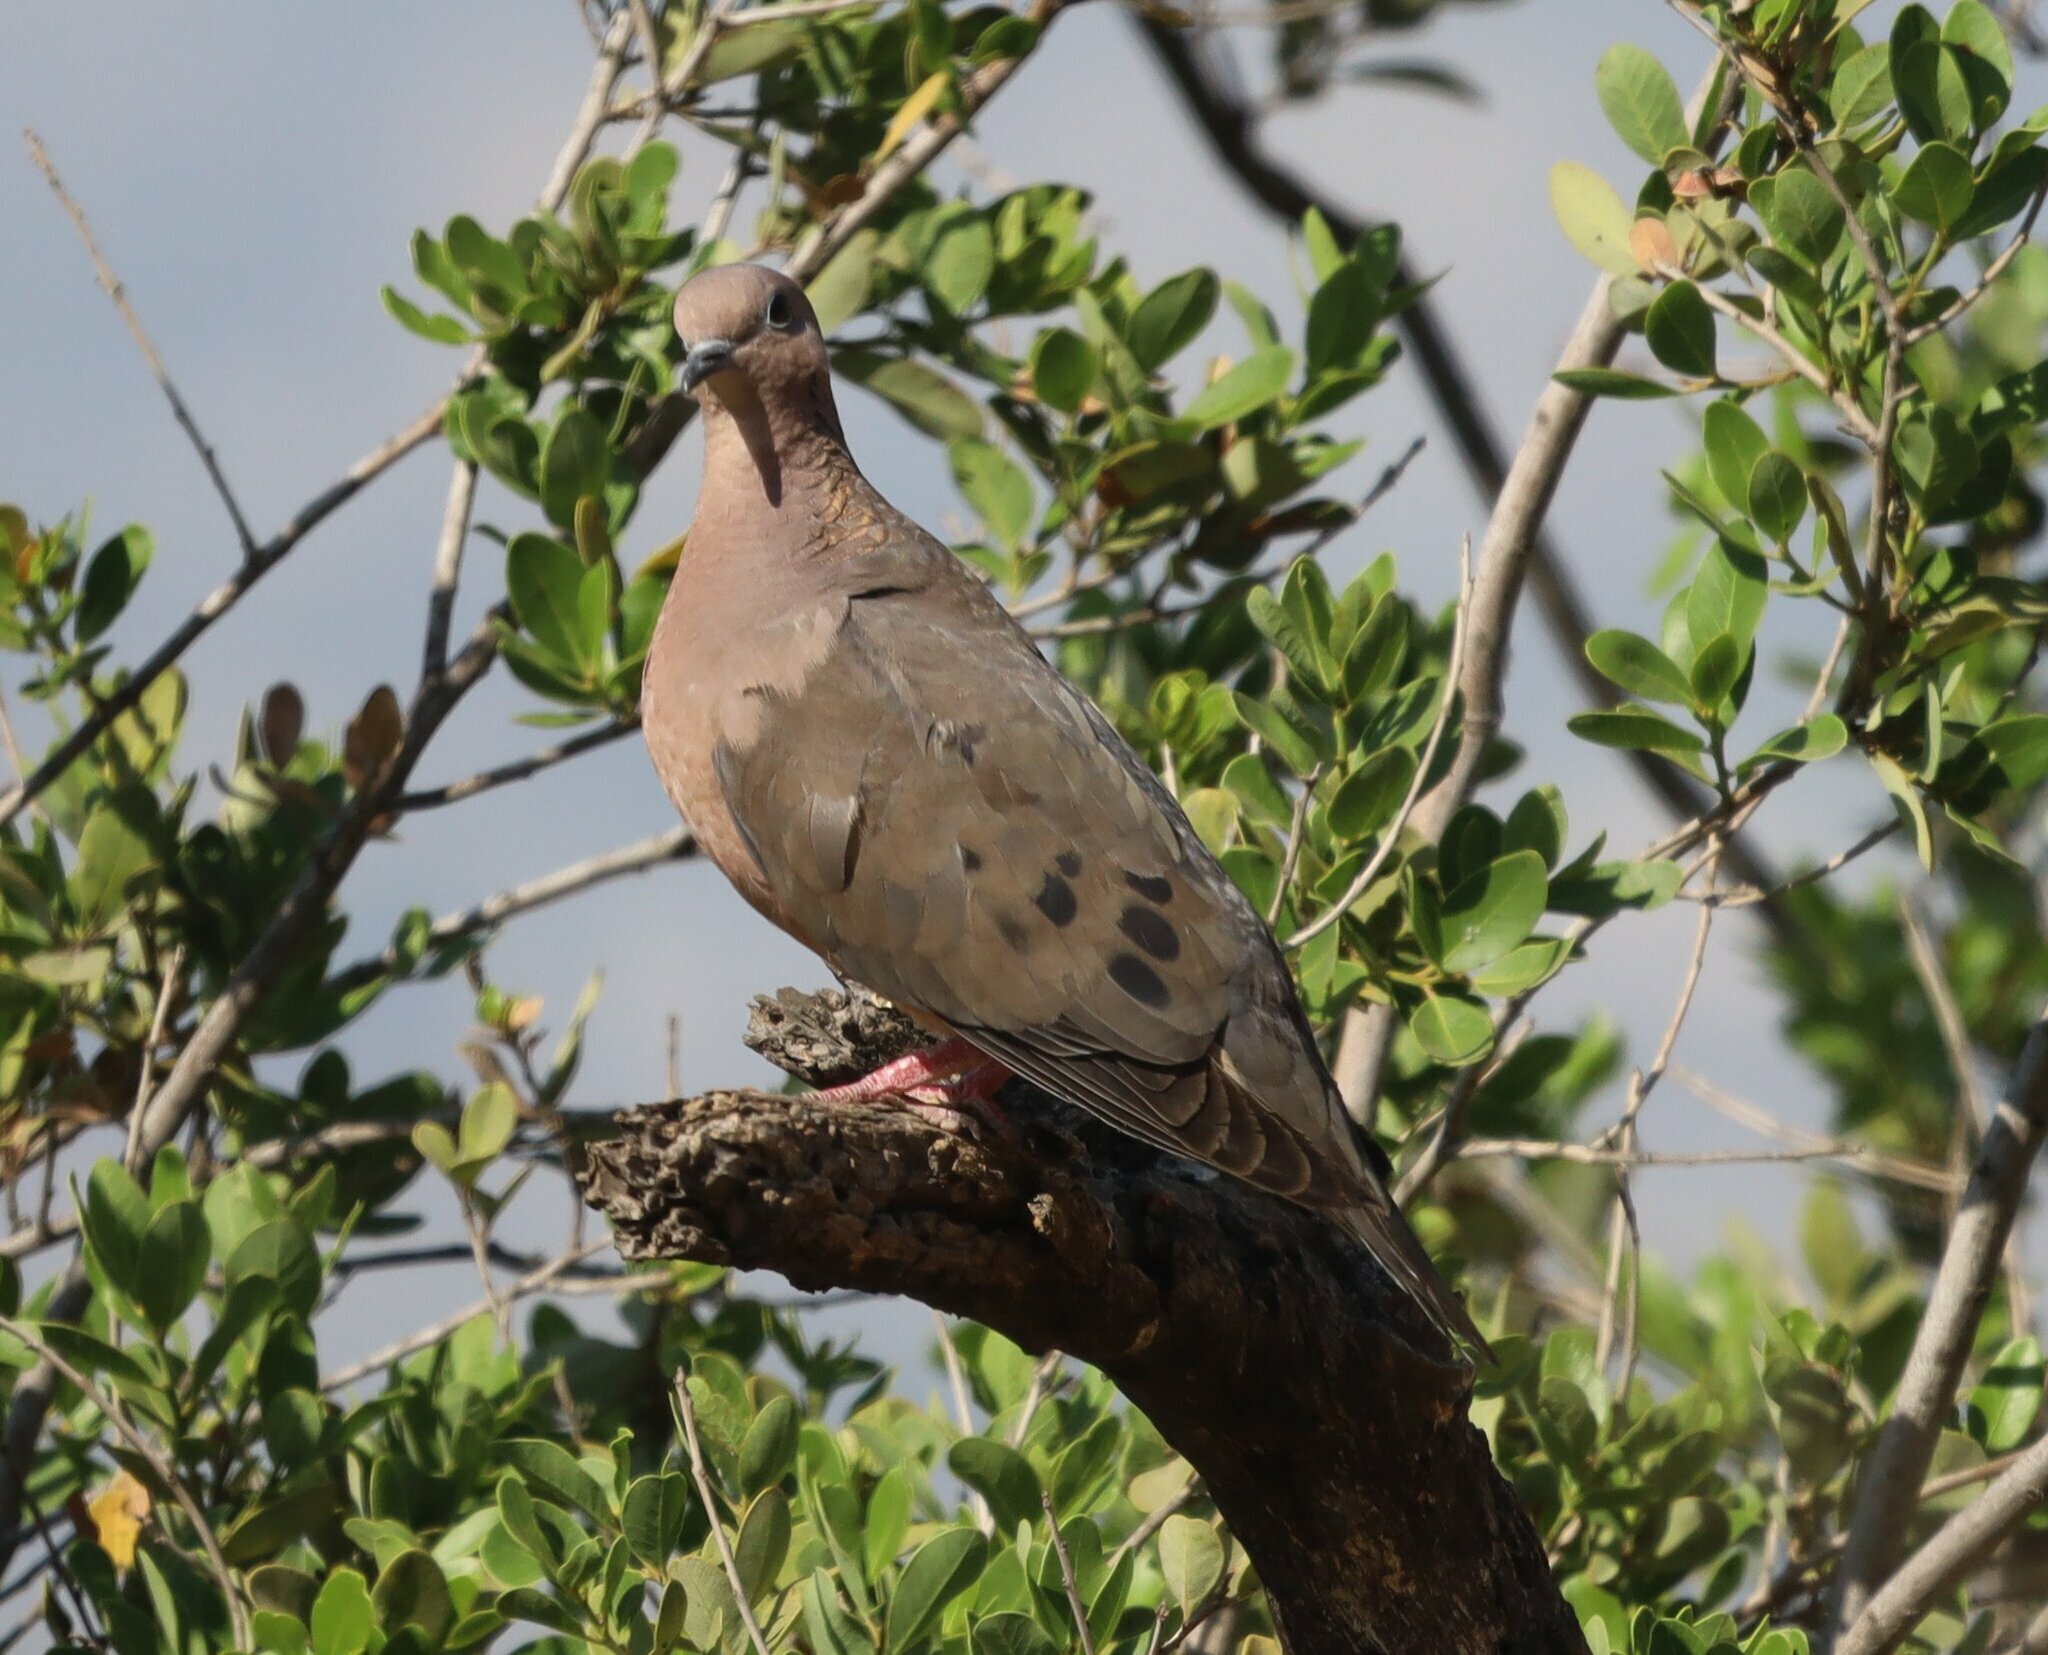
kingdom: Animalia
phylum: Chordata
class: Aves
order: Columbiformes
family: Columbidae
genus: Zenaida
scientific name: Zenaida auriculata
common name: Eared dove
